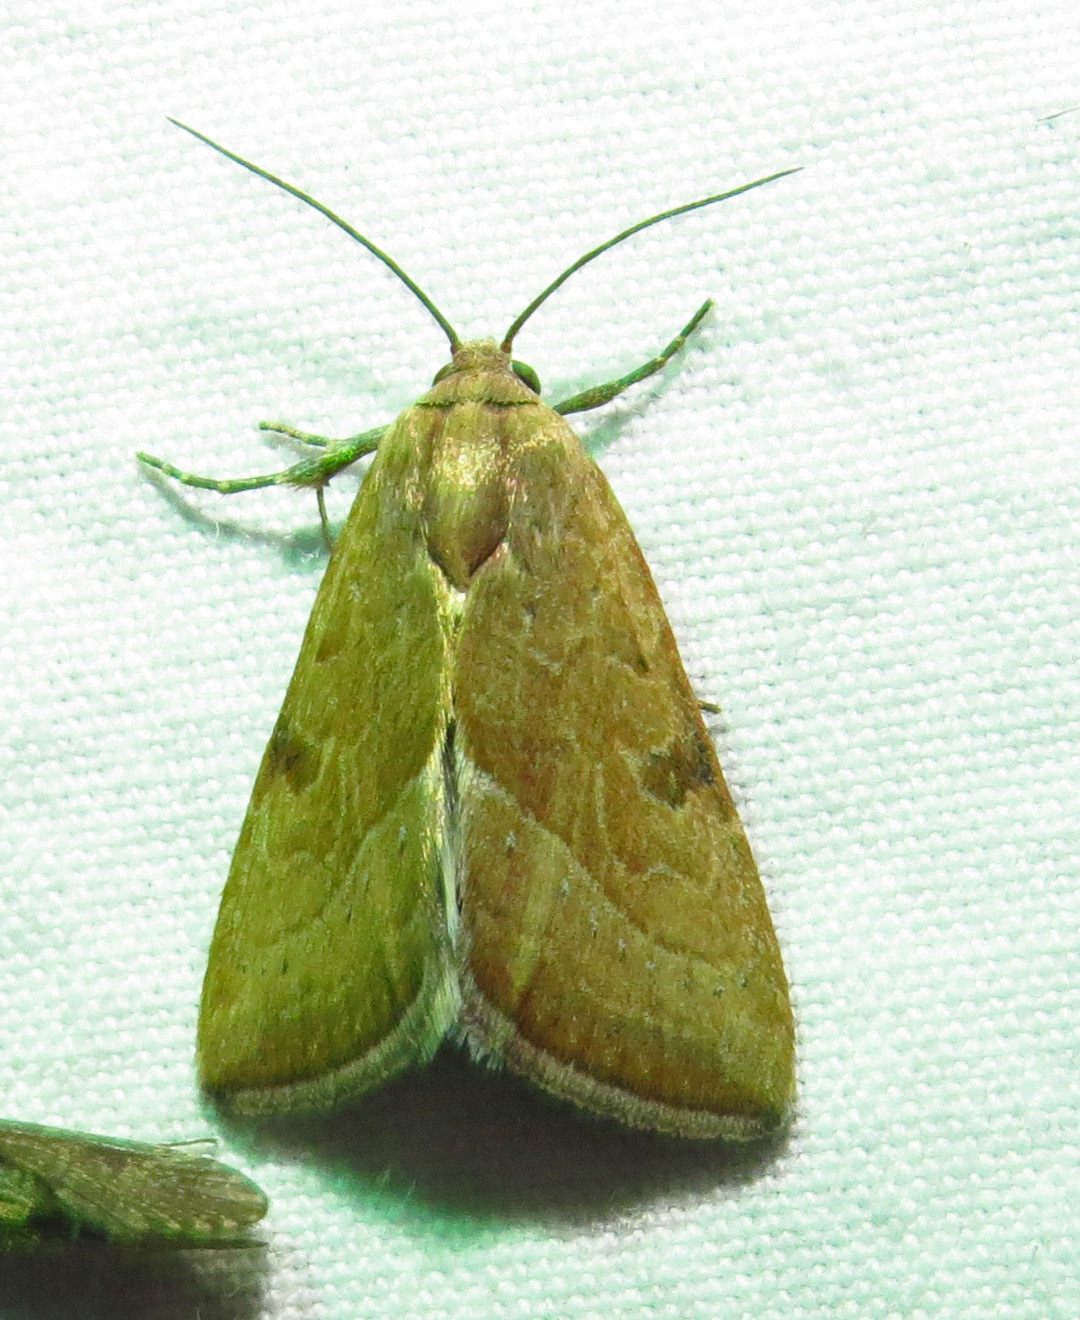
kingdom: Animalia
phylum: Arthropoda
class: Insecta
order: Lepidoptera
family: Noctuidae
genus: Galgula
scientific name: Galgula partita
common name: Wedgeling
